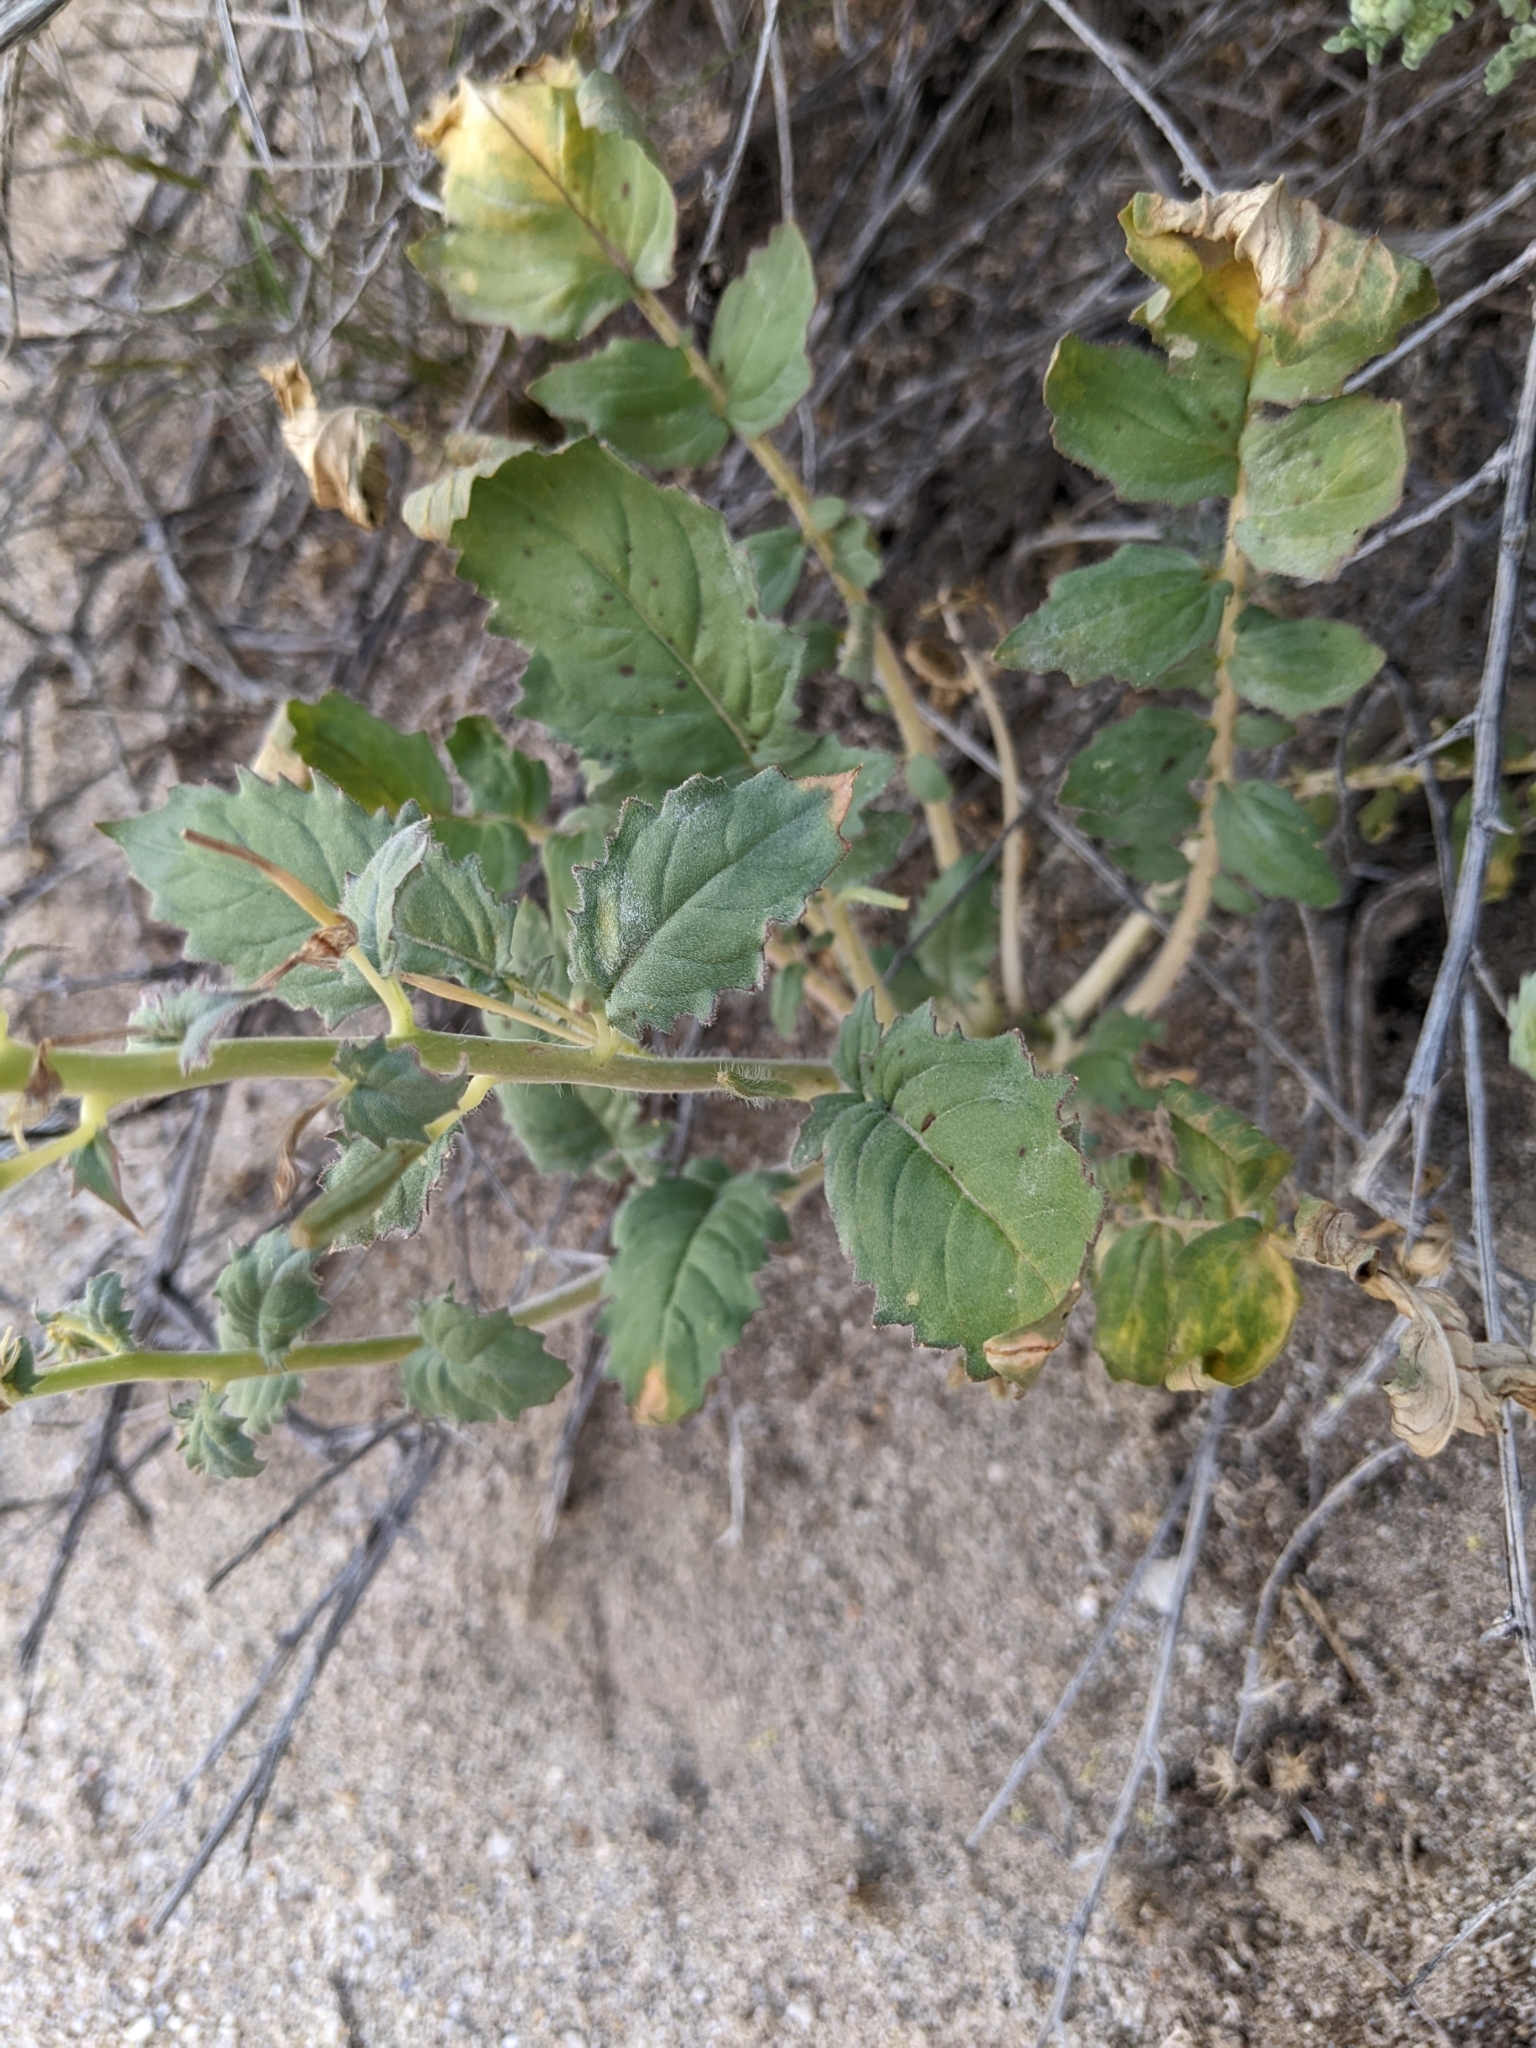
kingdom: Plantae
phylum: Tracheophyta
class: Magnoliopsida
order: Myrtales
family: Onagraceae
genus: Chylismia
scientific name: Chylismia claviformis
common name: Browneyes
